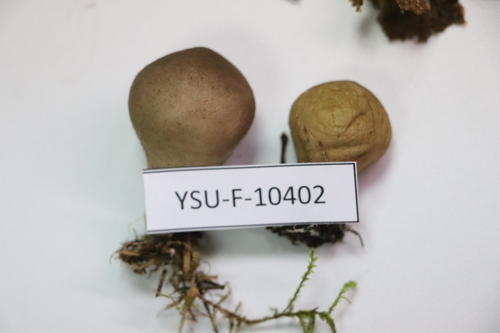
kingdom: Fungi
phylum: Basidiomycota
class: Agaricomycetes
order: Agaricales
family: Lycoperdaceae
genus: Lycoperdon
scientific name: Lycoperdon
